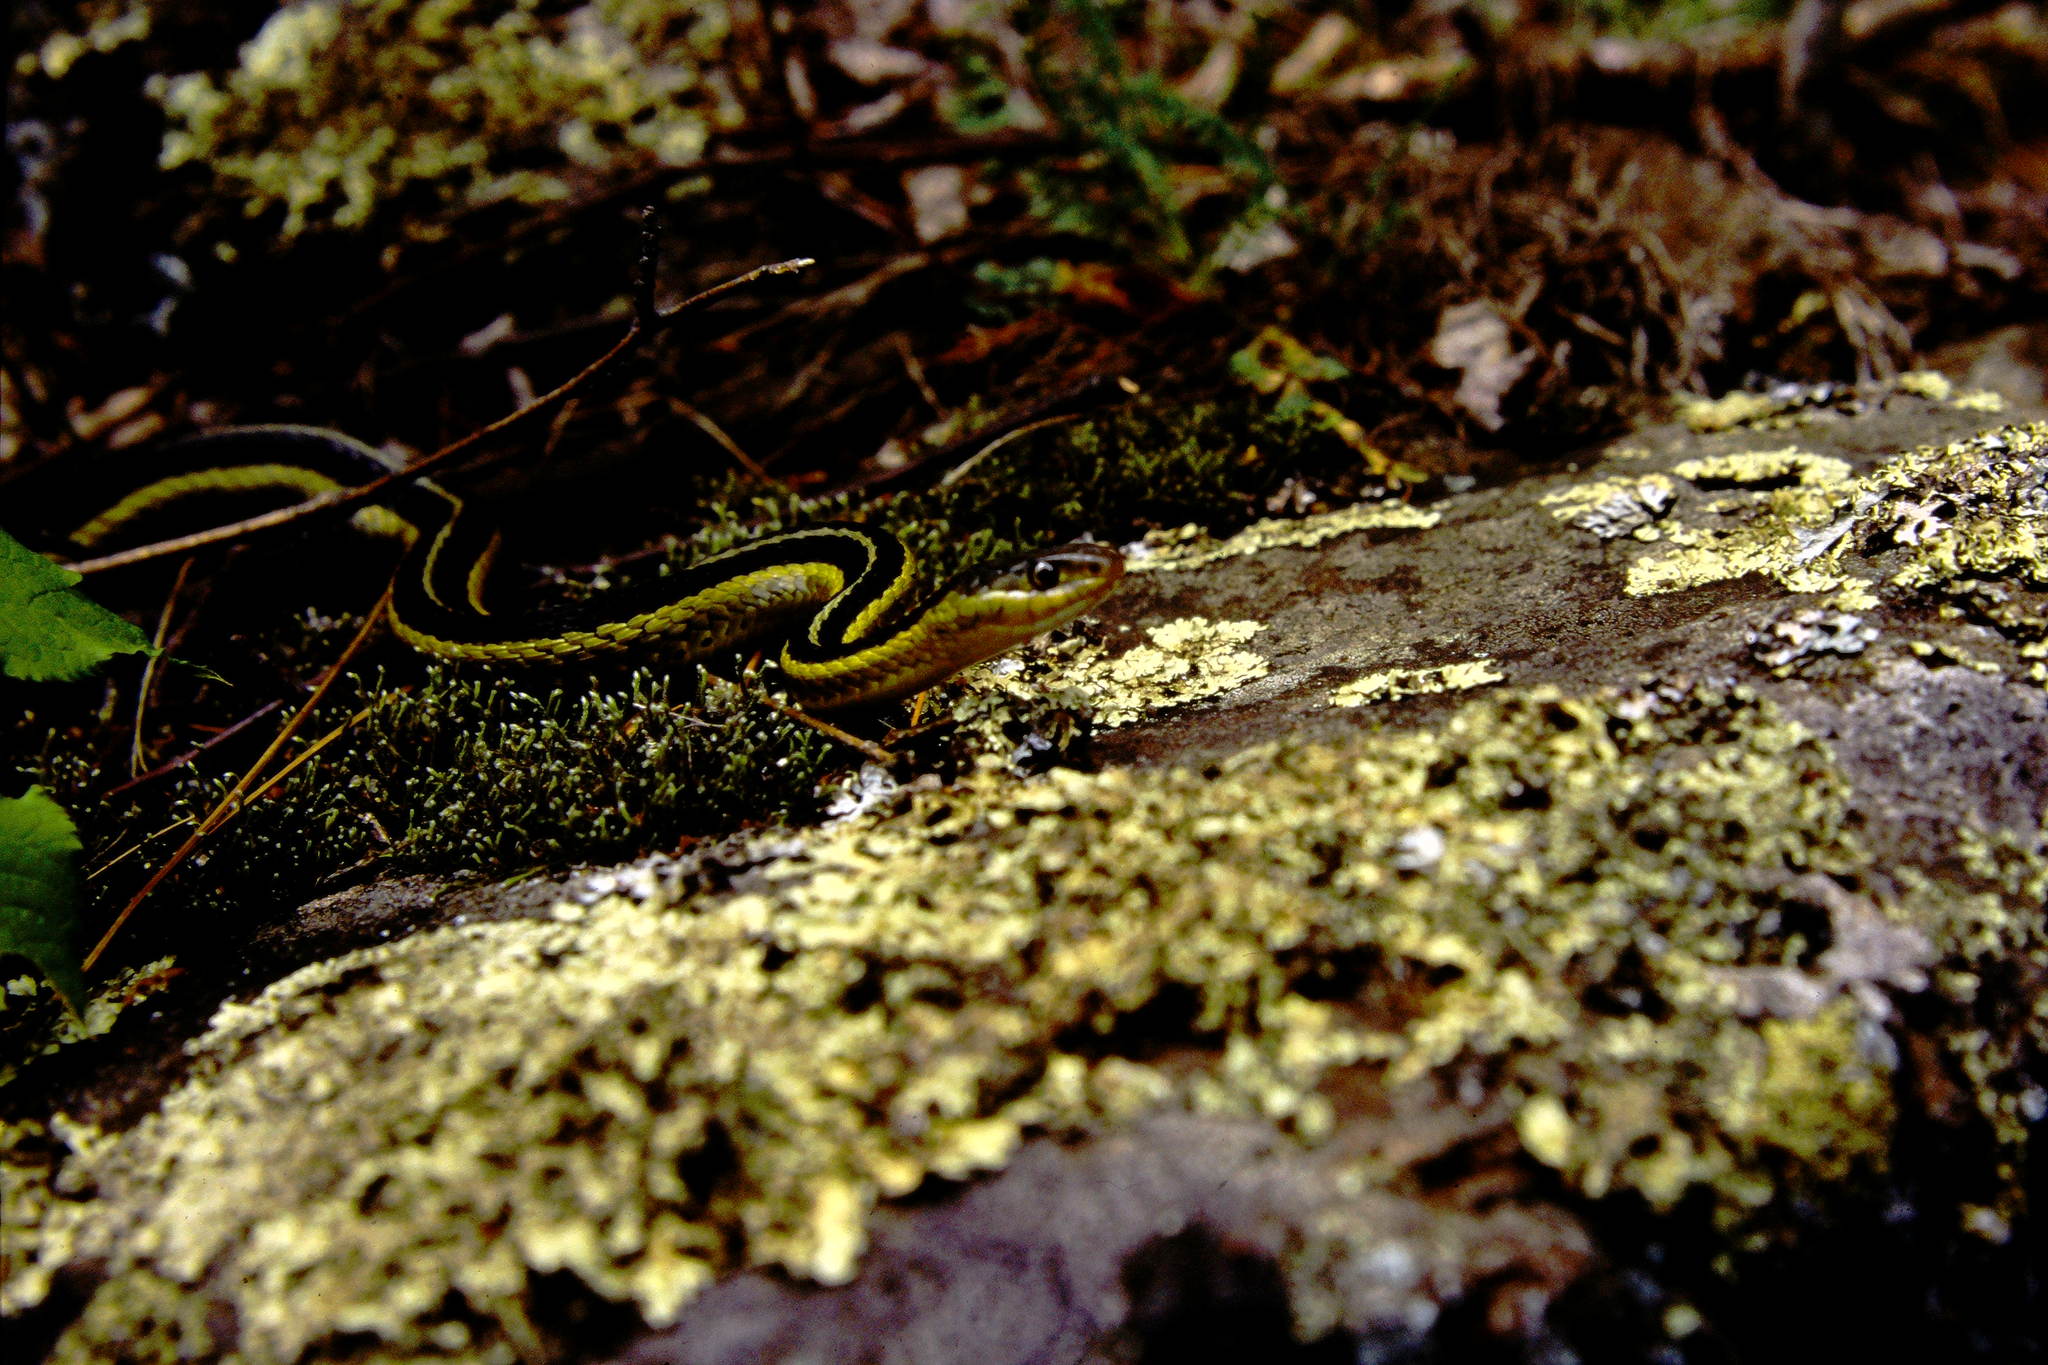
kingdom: Animalia
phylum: Chordata
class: Squamata
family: Colubridae
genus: Thamnophis
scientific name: Thamnophis sirtalis
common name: Common garter snake
